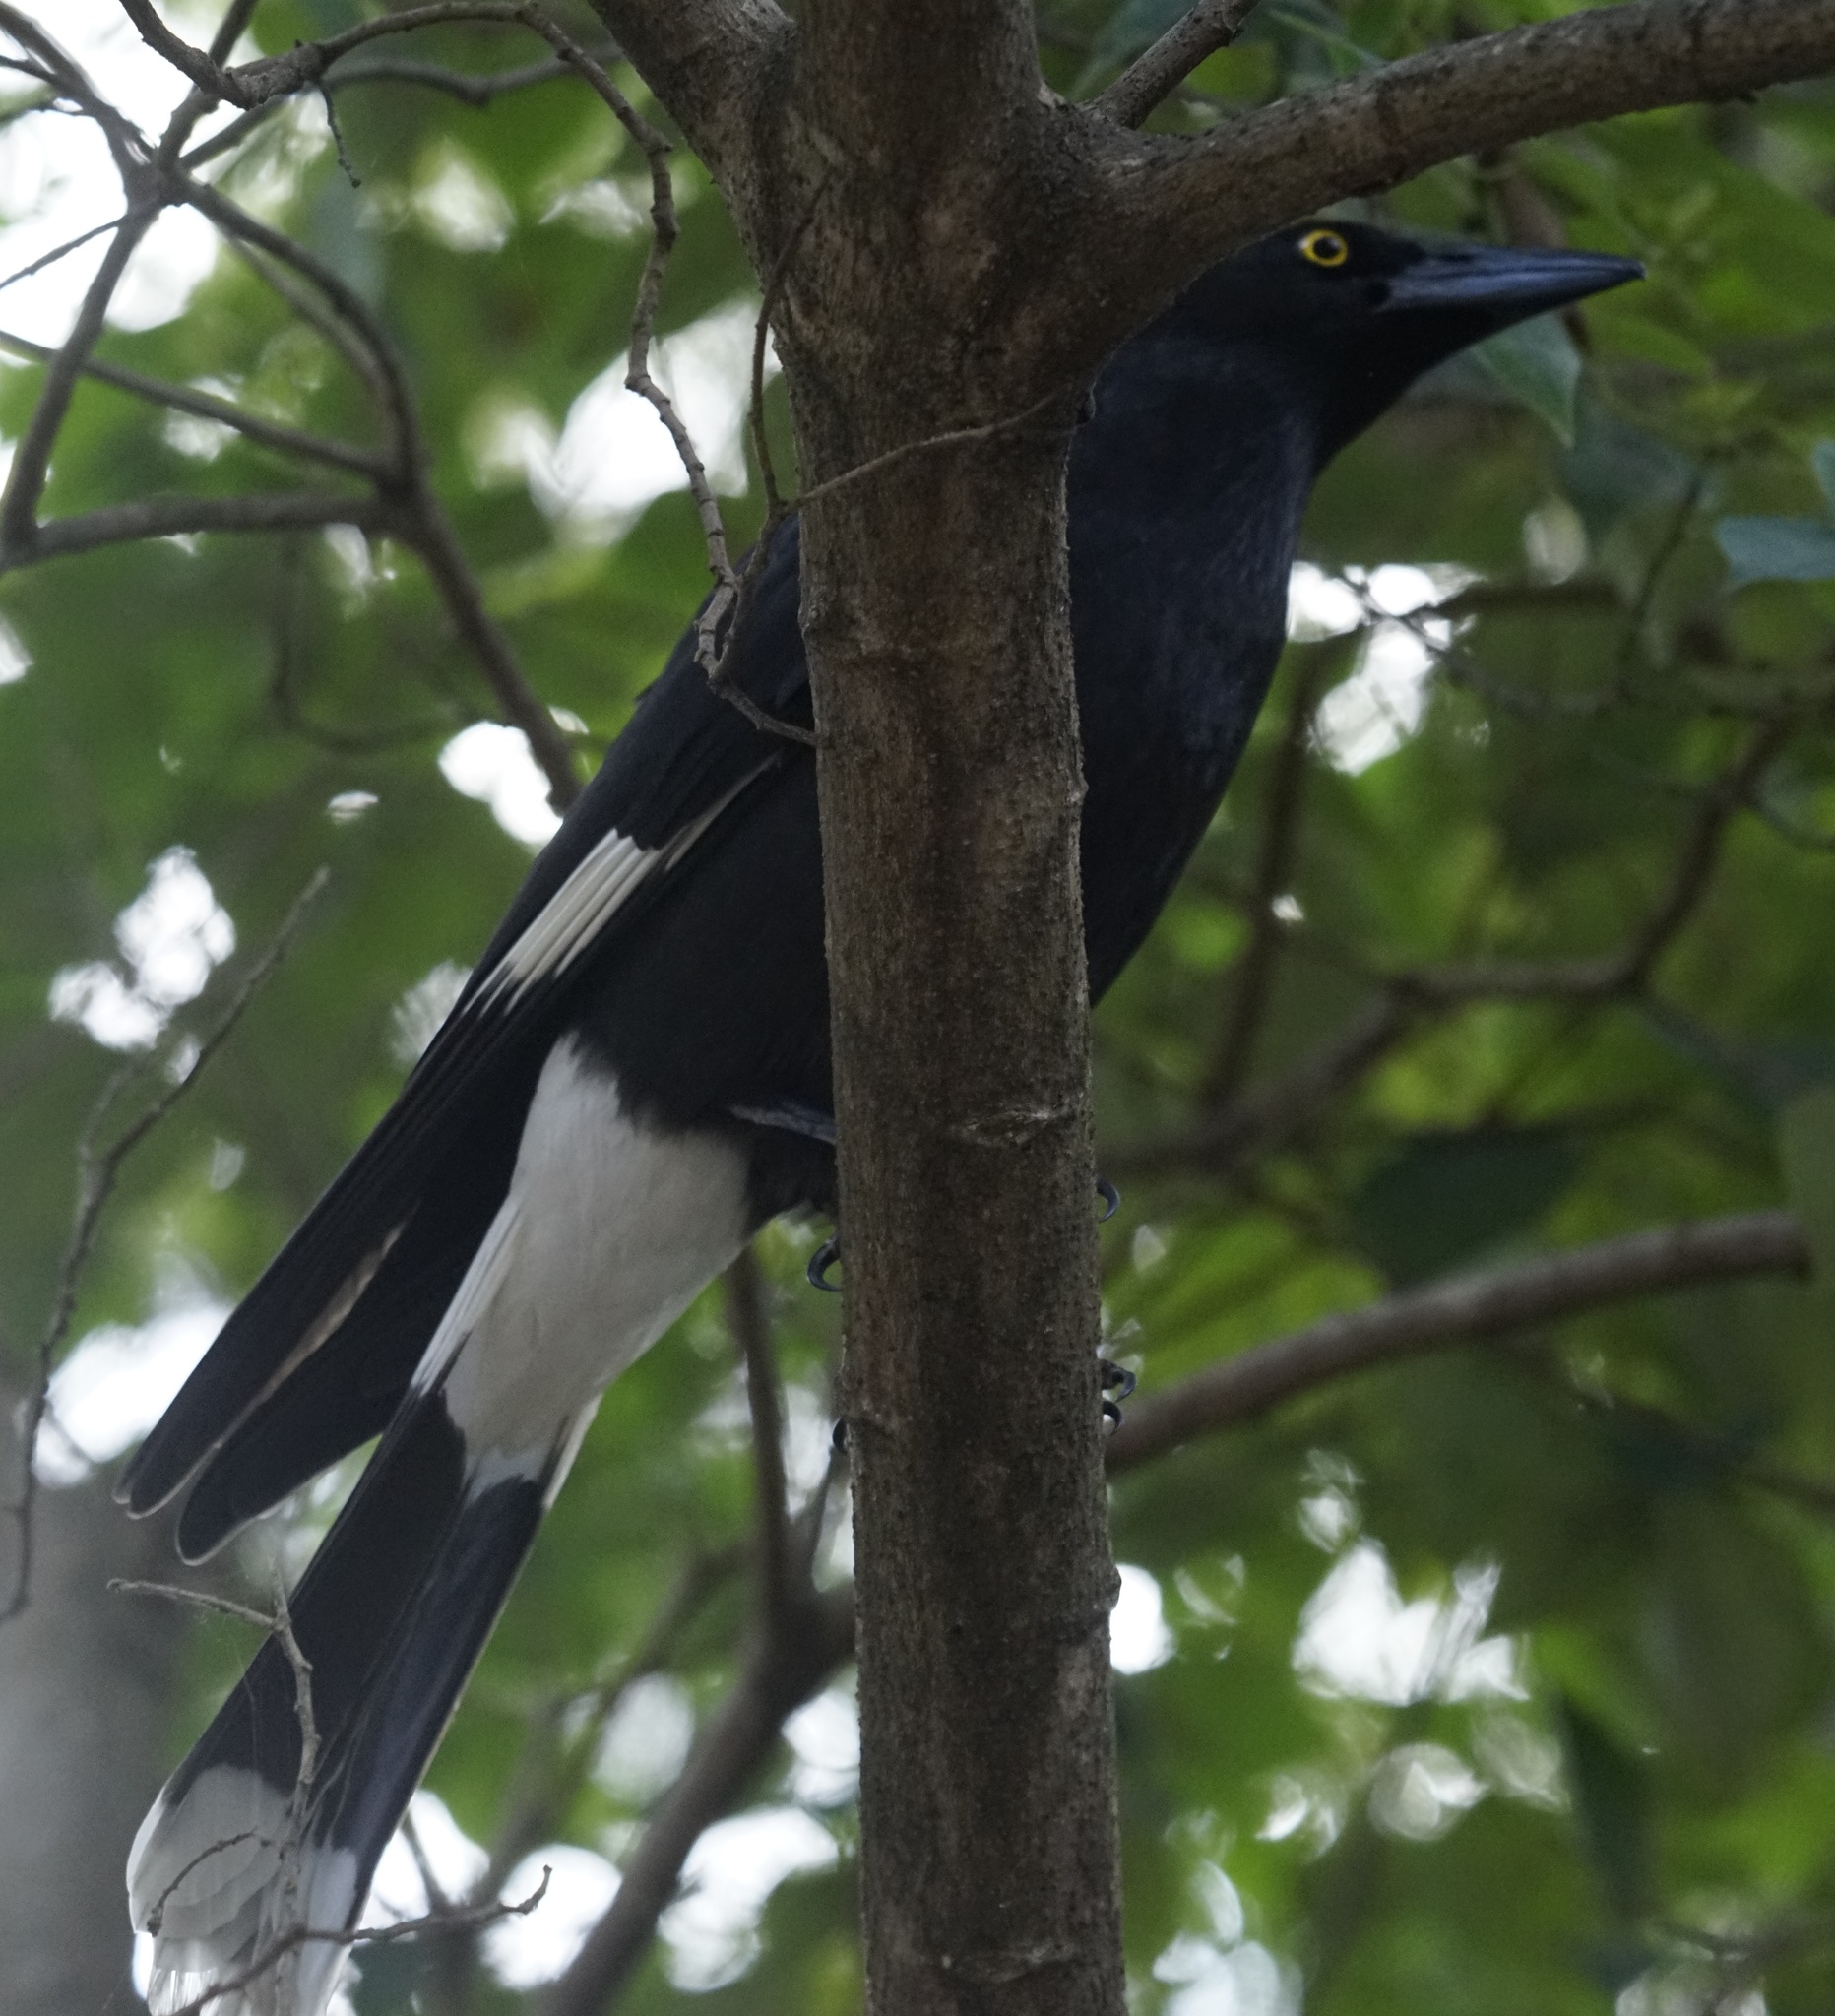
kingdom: Animalia
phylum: Chordata
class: Aves
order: Passeriformes
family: Cracticidae
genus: Strepera
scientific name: Strepera graculina
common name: Pied currawong
